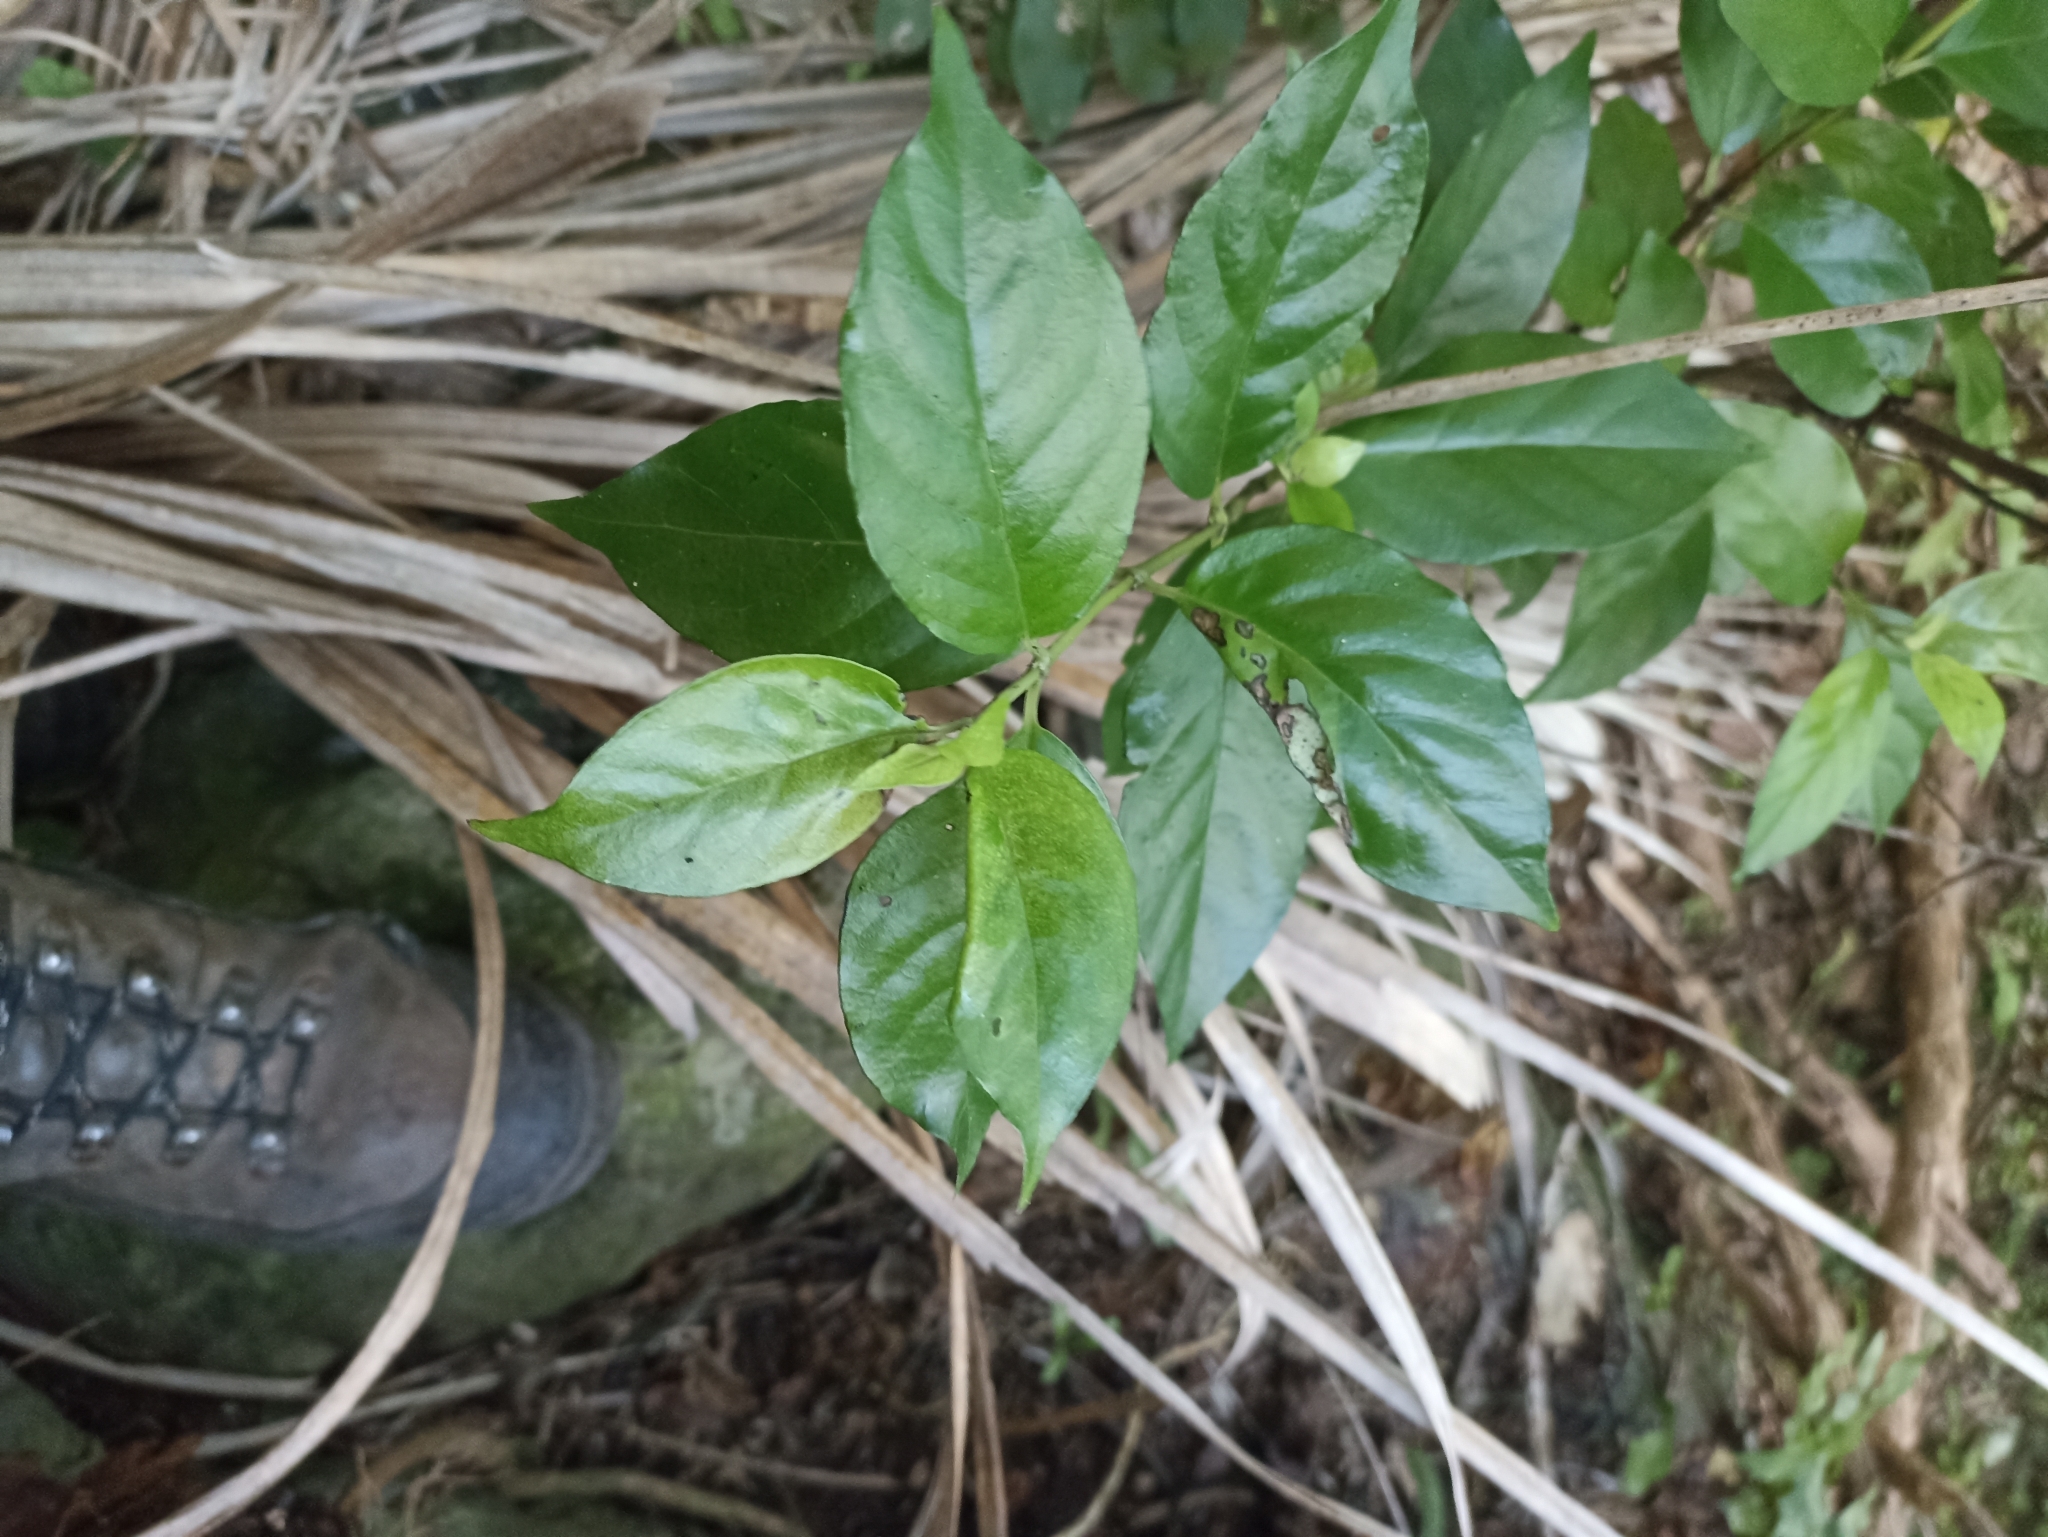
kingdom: Plantae
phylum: Tracheophyta
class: Magnoliopsida
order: Gentianales
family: Loganiaceae
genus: Geniostoma
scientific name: Geniostoma ligustrifolium
